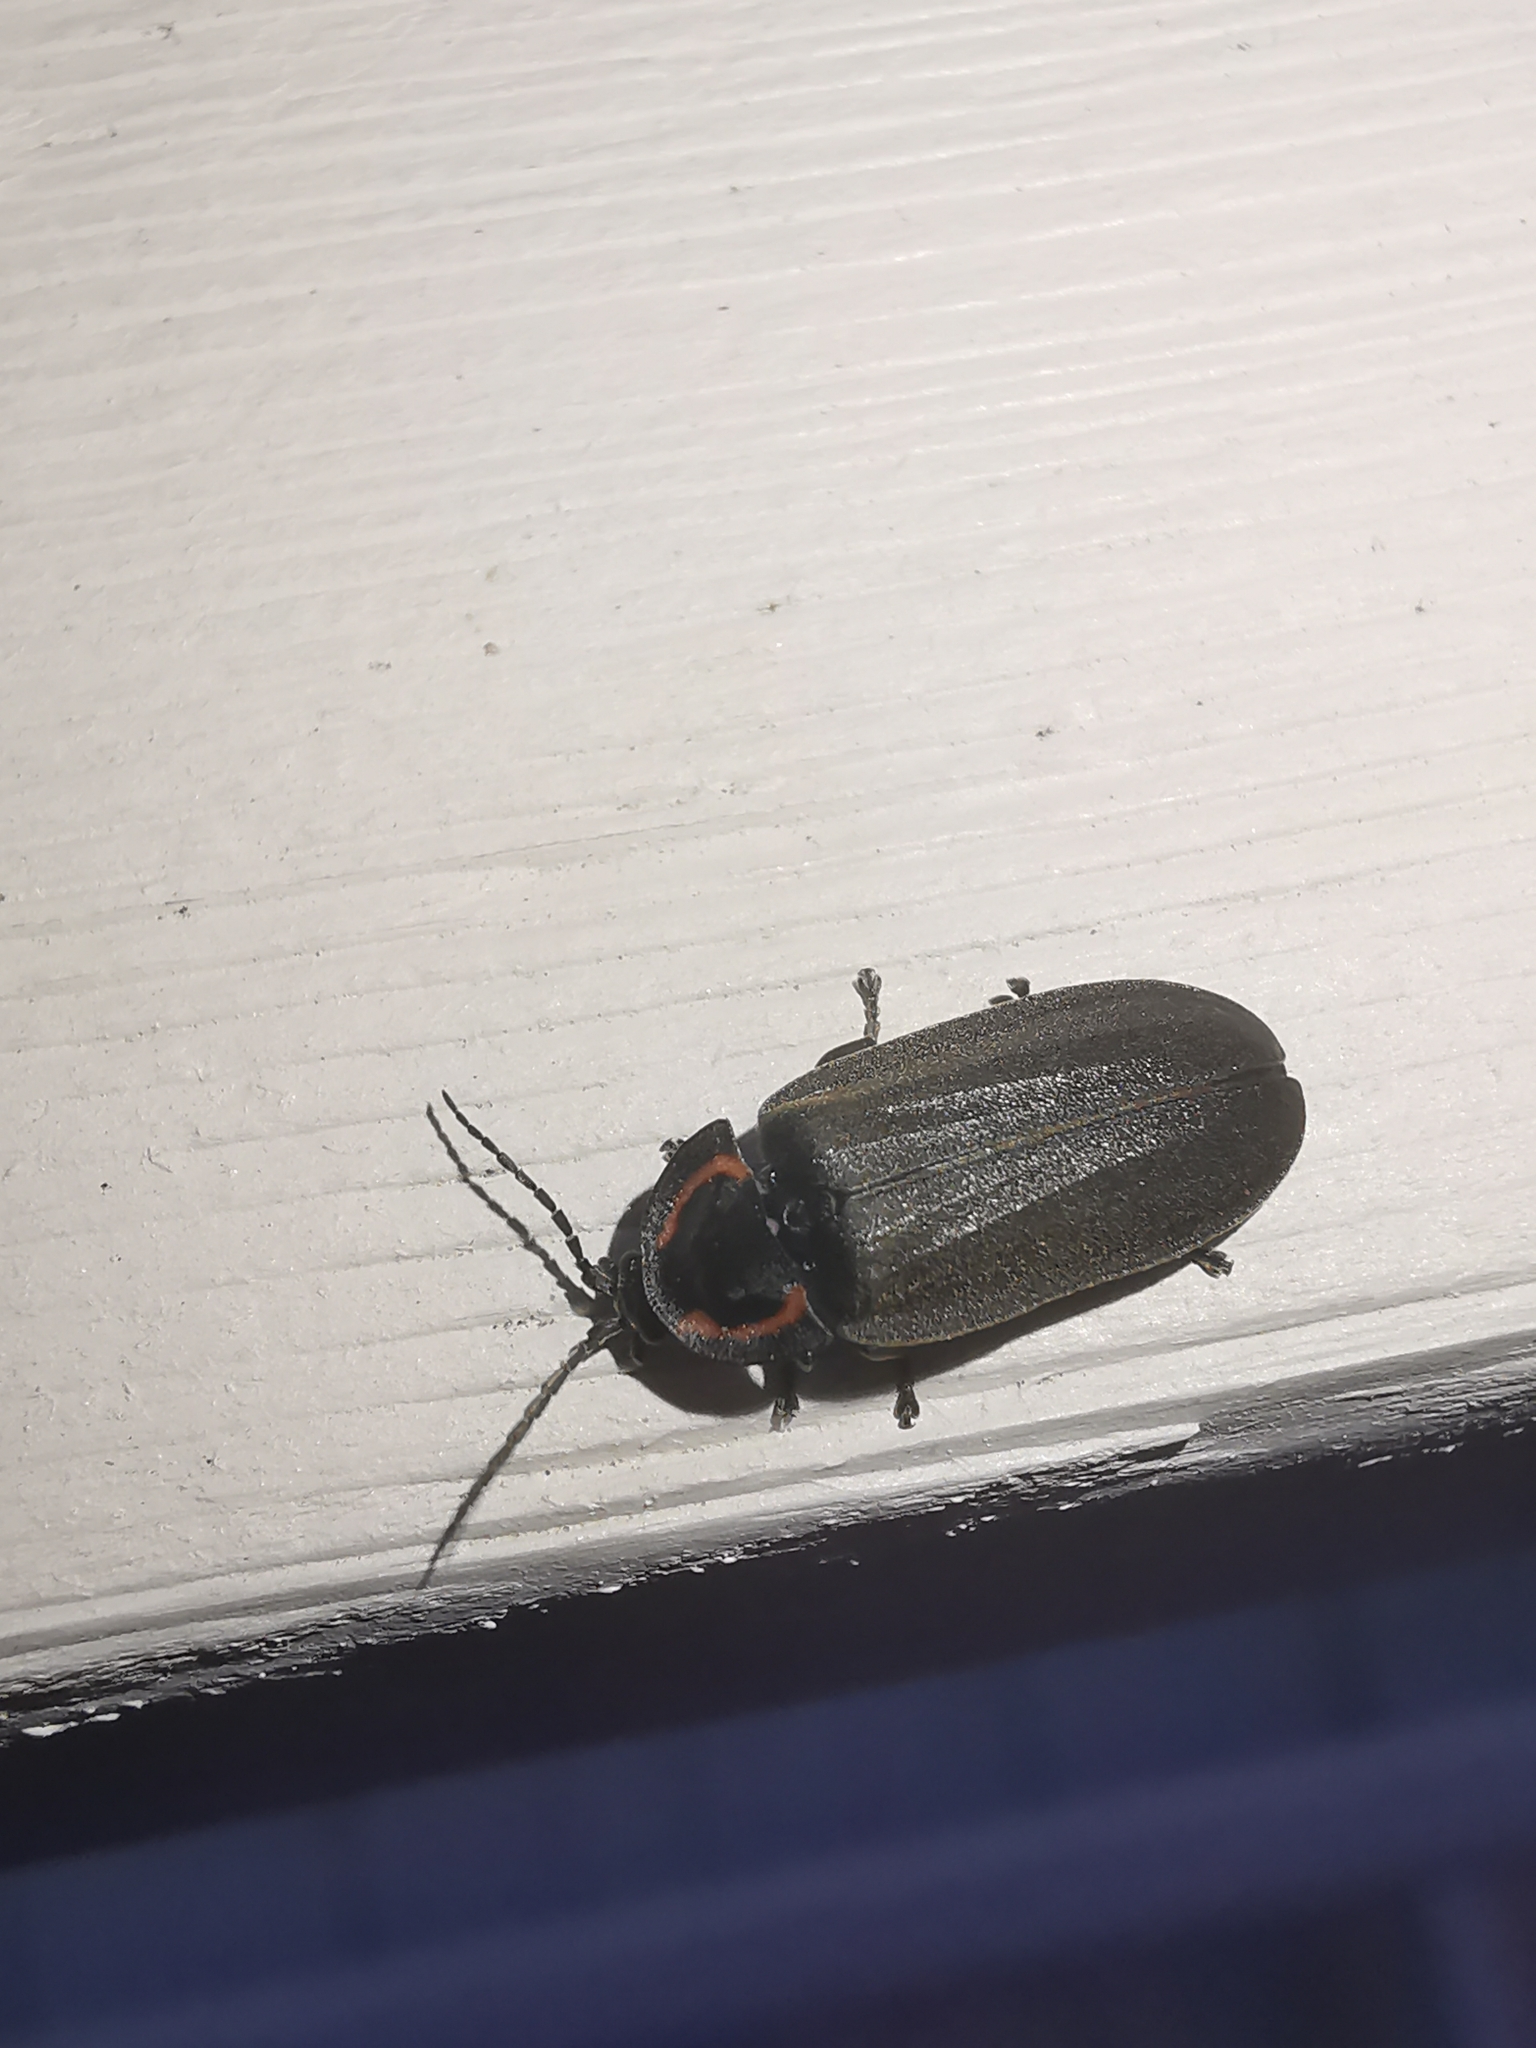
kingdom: Animalia
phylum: Arthropoda
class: Insecta
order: Coleoptera
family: Lampyridae
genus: Photinus
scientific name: Photinus corrusca
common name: Winter firefly
